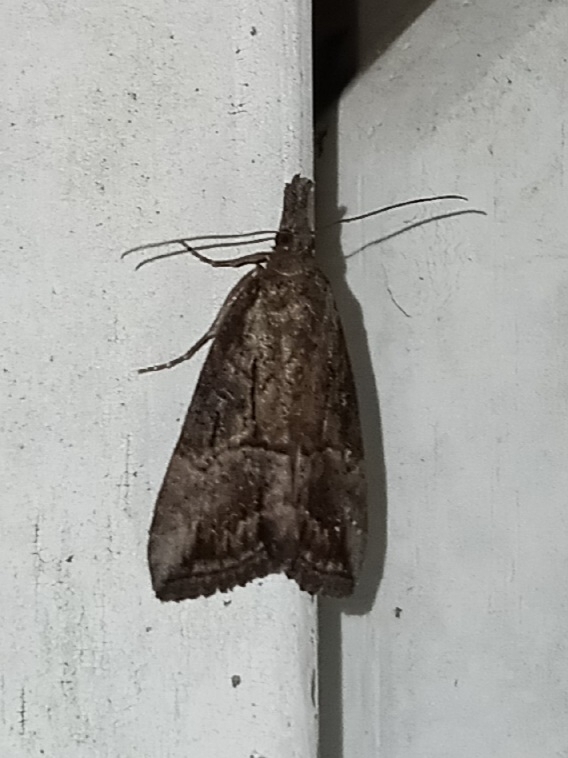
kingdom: Animalia
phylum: Arthropoda
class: Insecta
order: Lepidoptera
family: Erebidae
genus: Hypena
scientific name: Hypena scabra
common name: Green cloverworm
